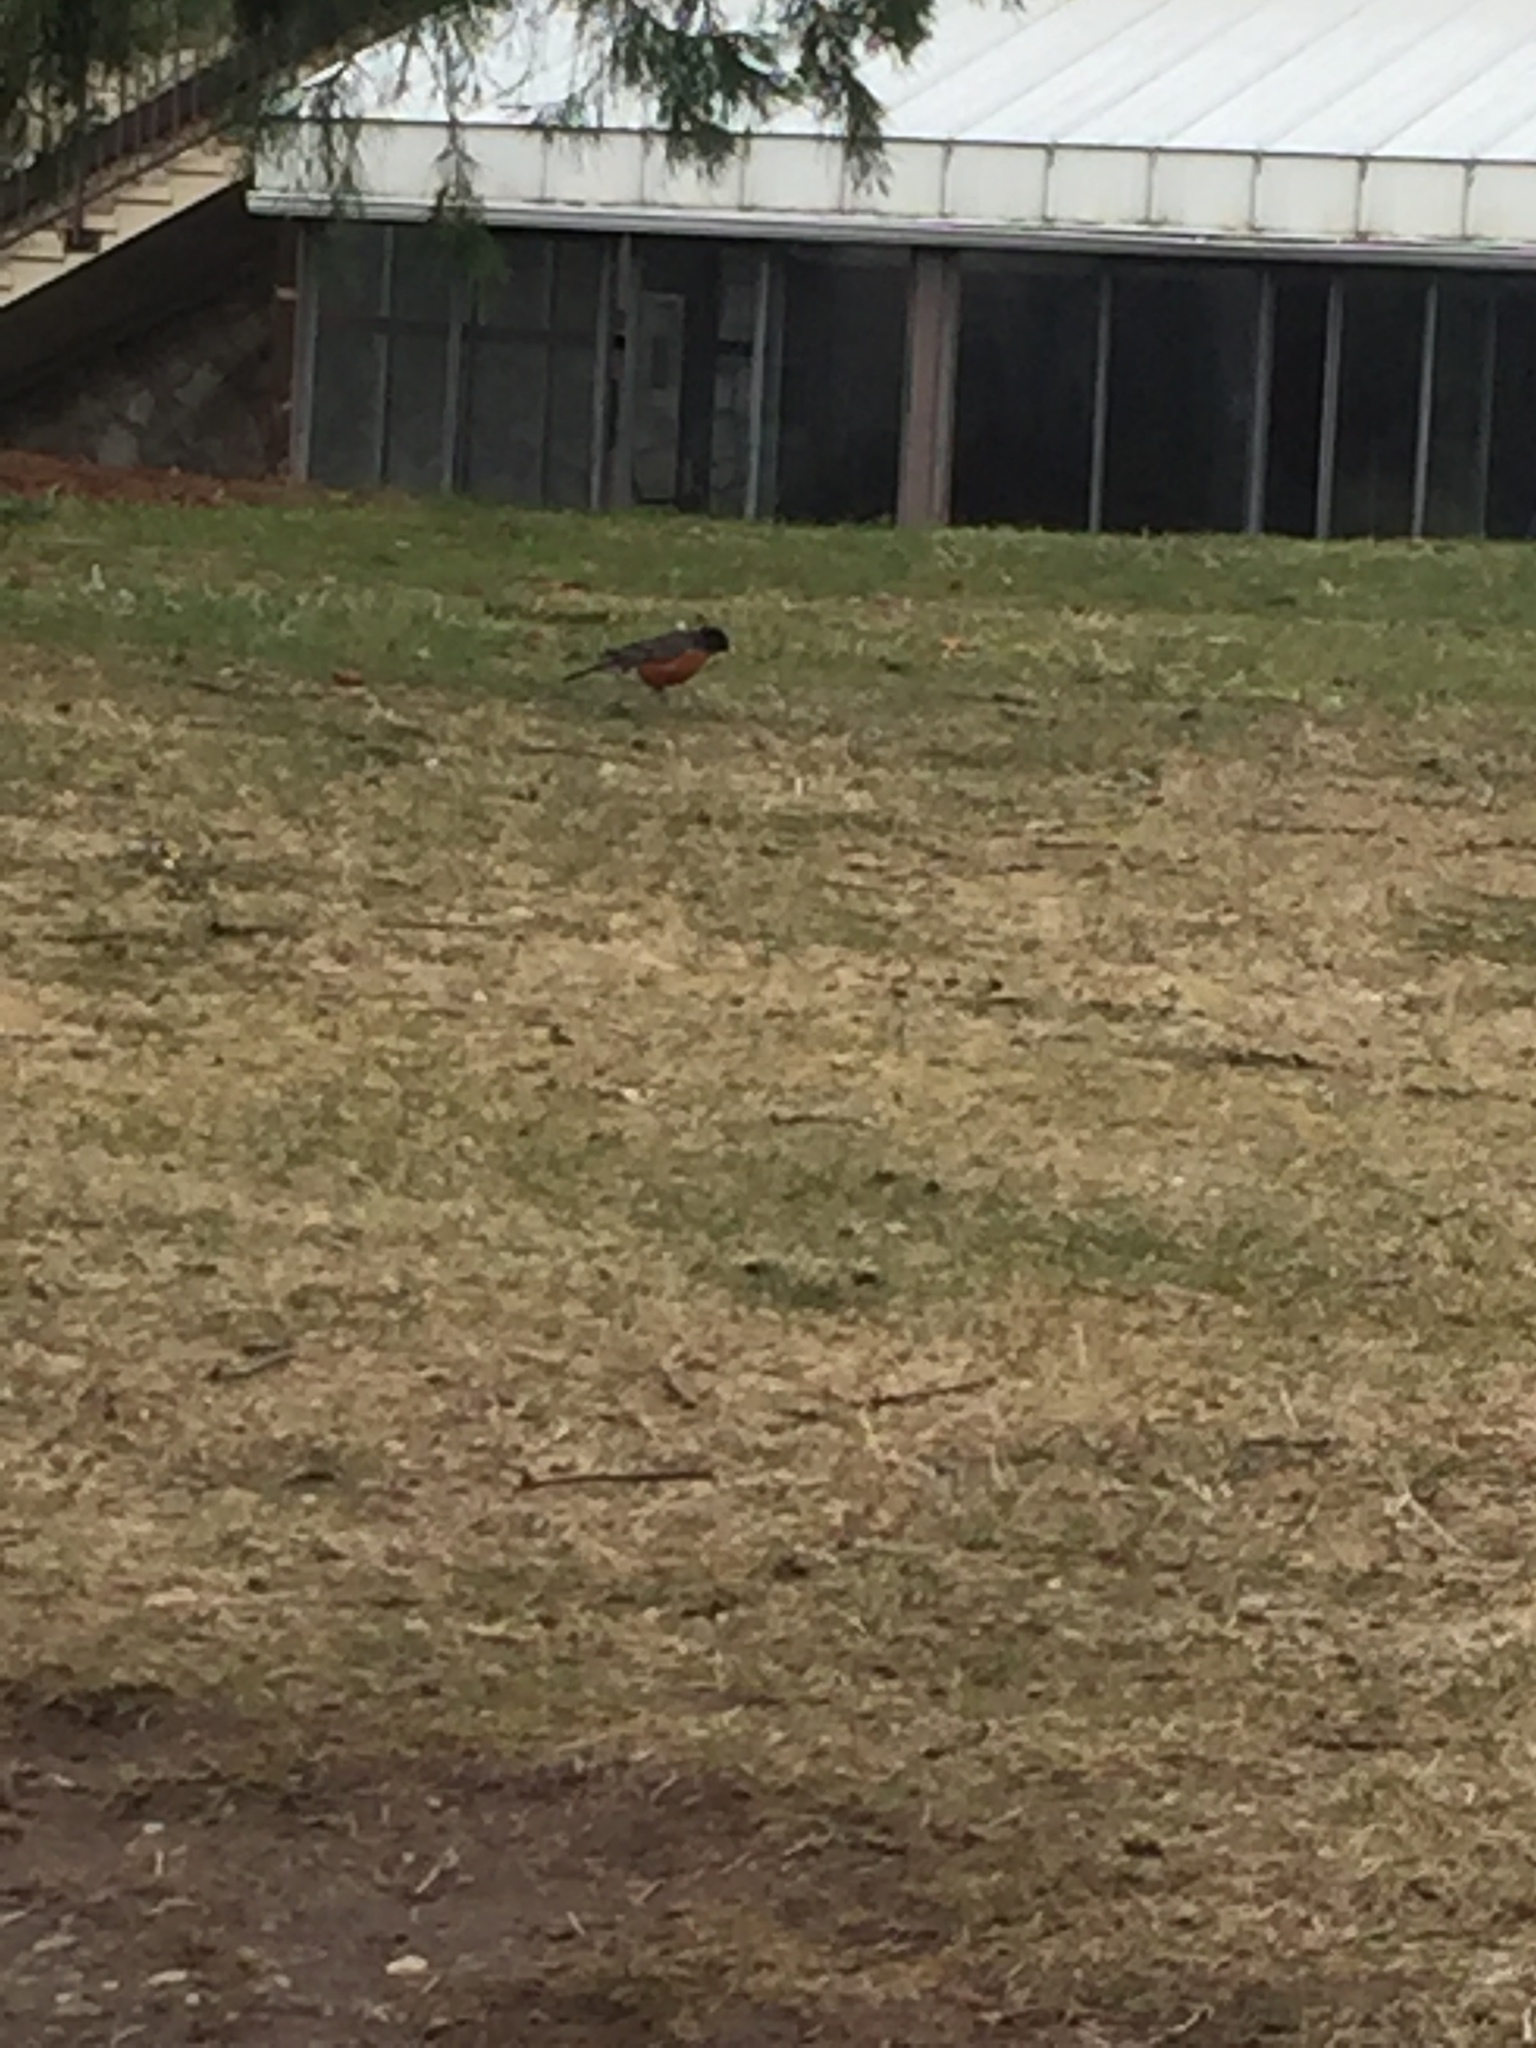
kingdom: Animalia
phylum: Chordata
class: Aves
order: Passeriformes
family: Turdidae
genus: Turdus
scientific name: Turdus migratorius
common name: American robin
